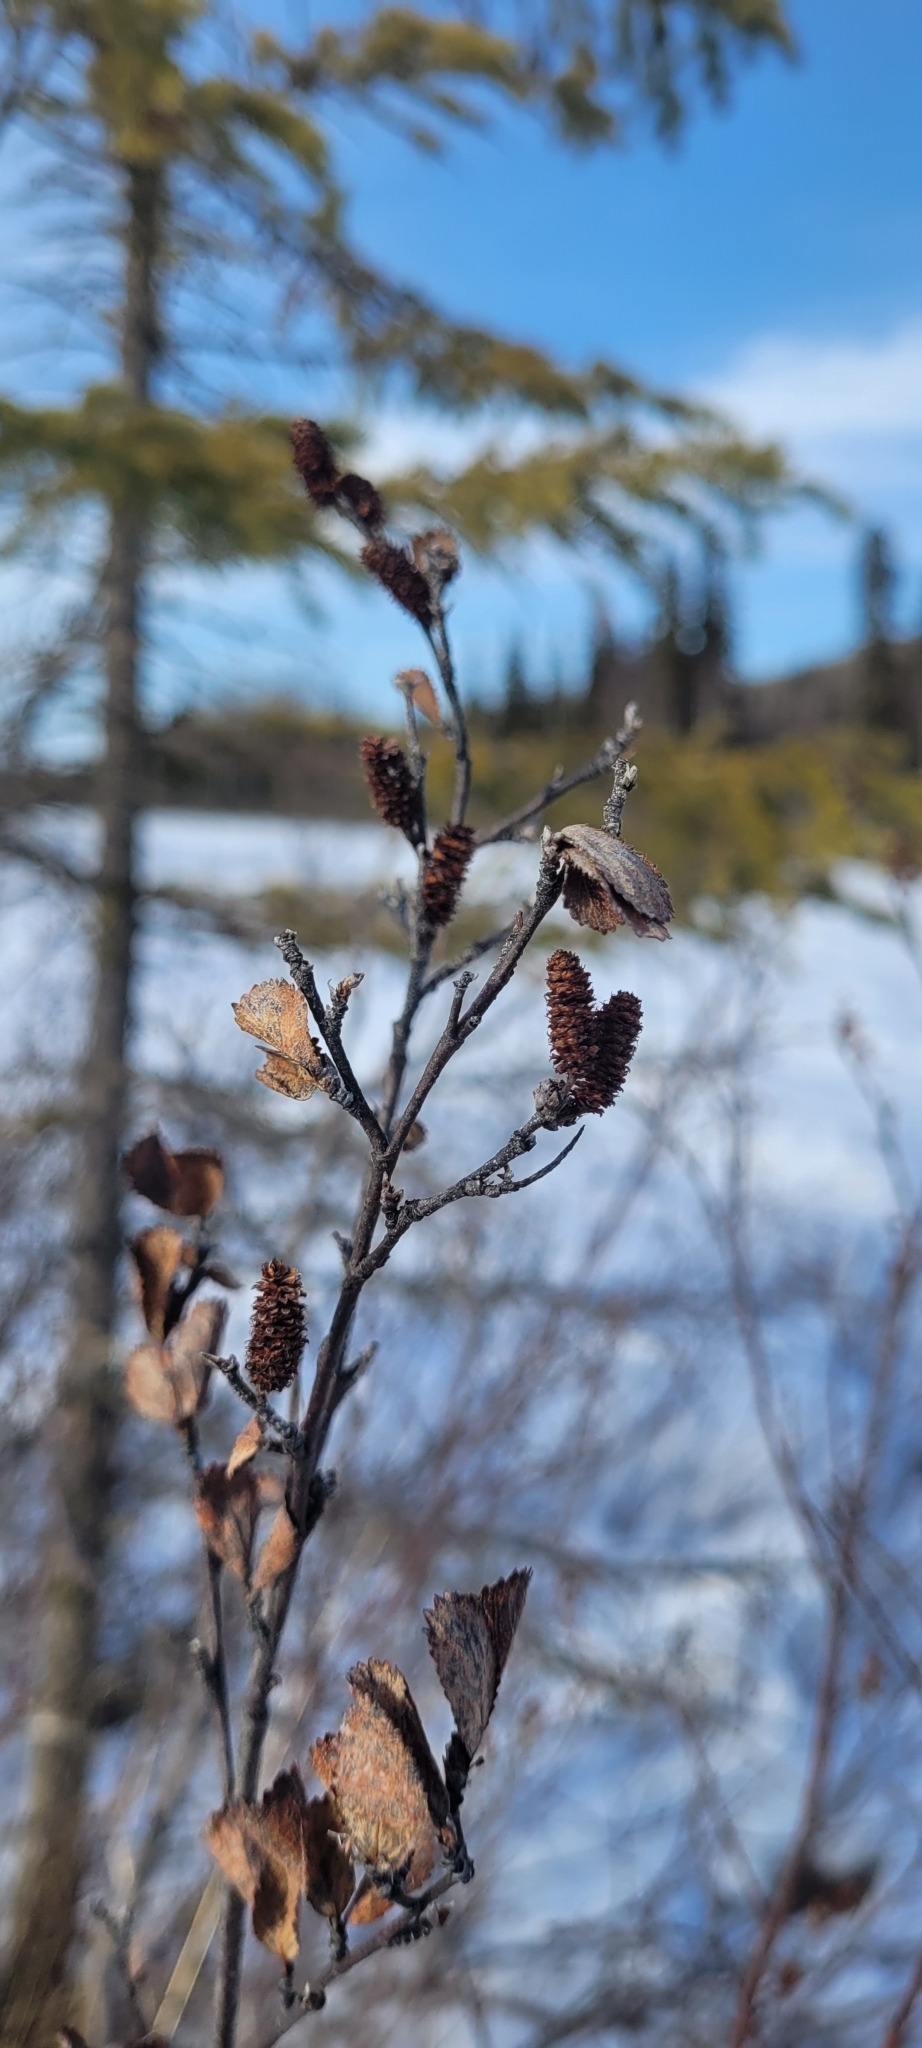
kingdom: Plantae
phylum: Tracheophyta
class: Magnoliopsida
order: Fagales
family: Betulaceae
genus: Betula
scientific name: Betula glandulosa
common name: Dwarf birch
